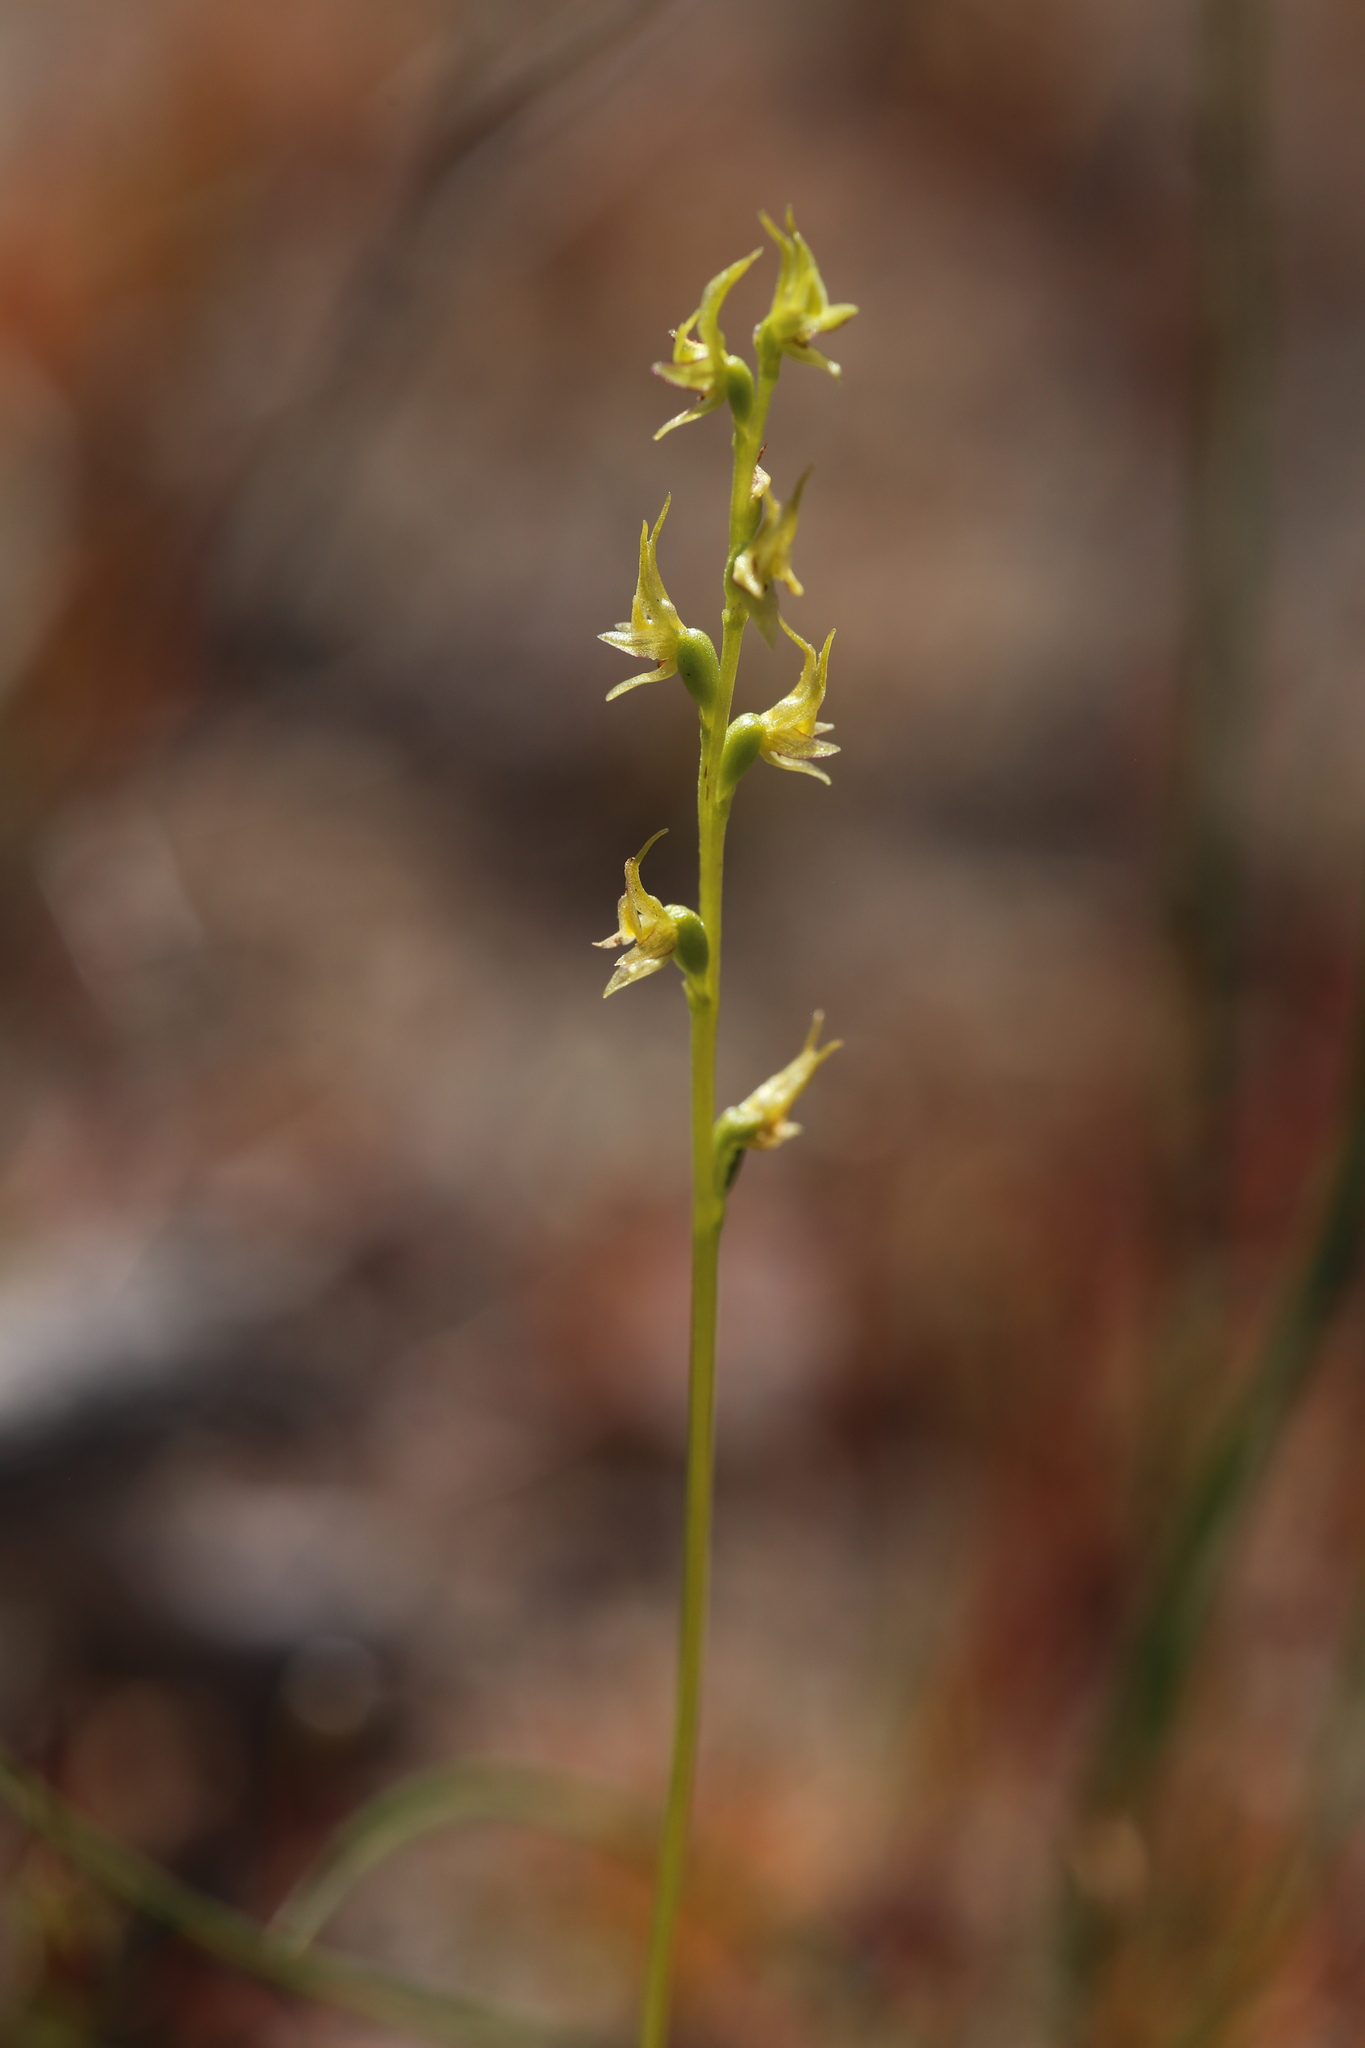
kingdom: Plantae
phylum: Tracheophyta
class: Liliopsida
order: Asparagales
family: Orchidaceae
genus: Prasophyllum
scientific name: Prasophyllum gracile
